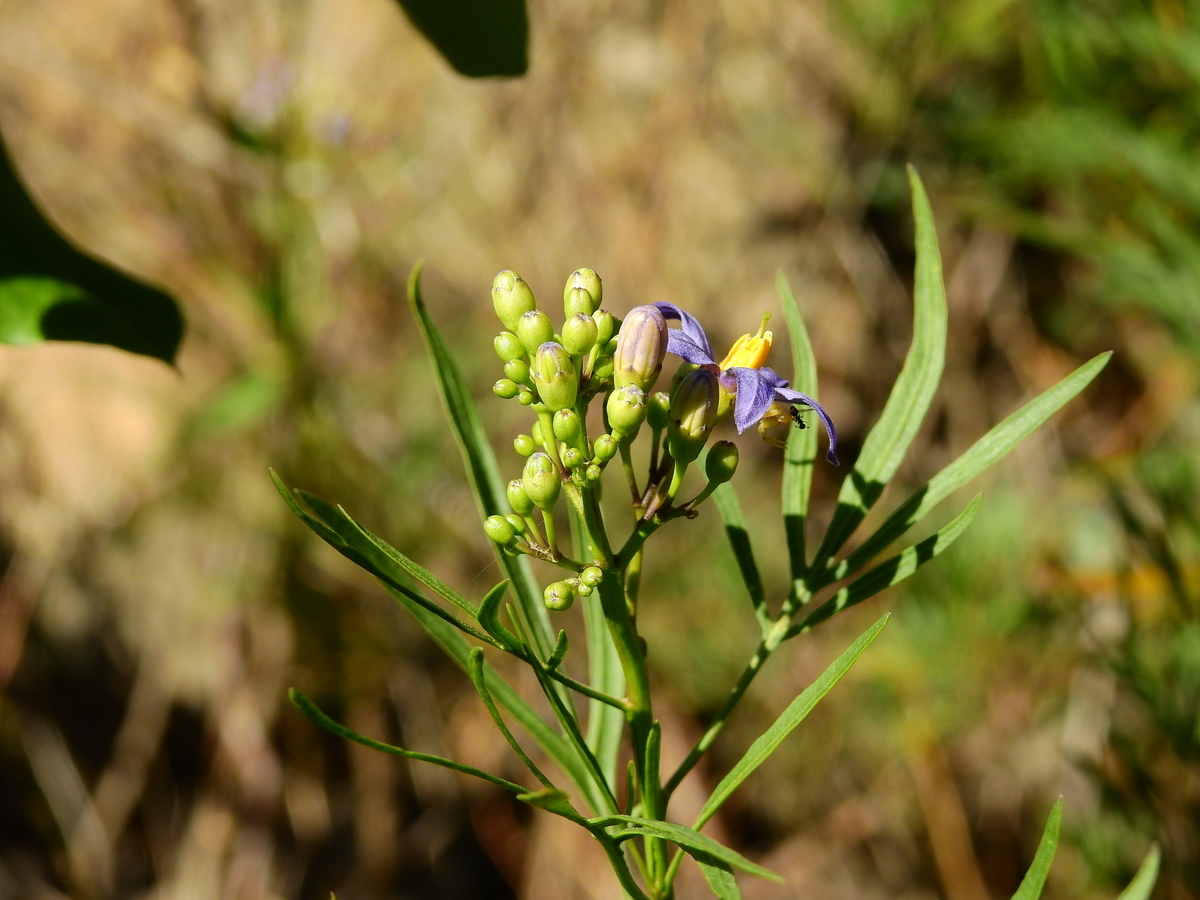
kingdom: Plantae
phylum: Tracheophyta
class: Magnoliopsida
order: Solanales
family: Solanaceae
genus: Solanum
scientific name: Solanum angustifidum
